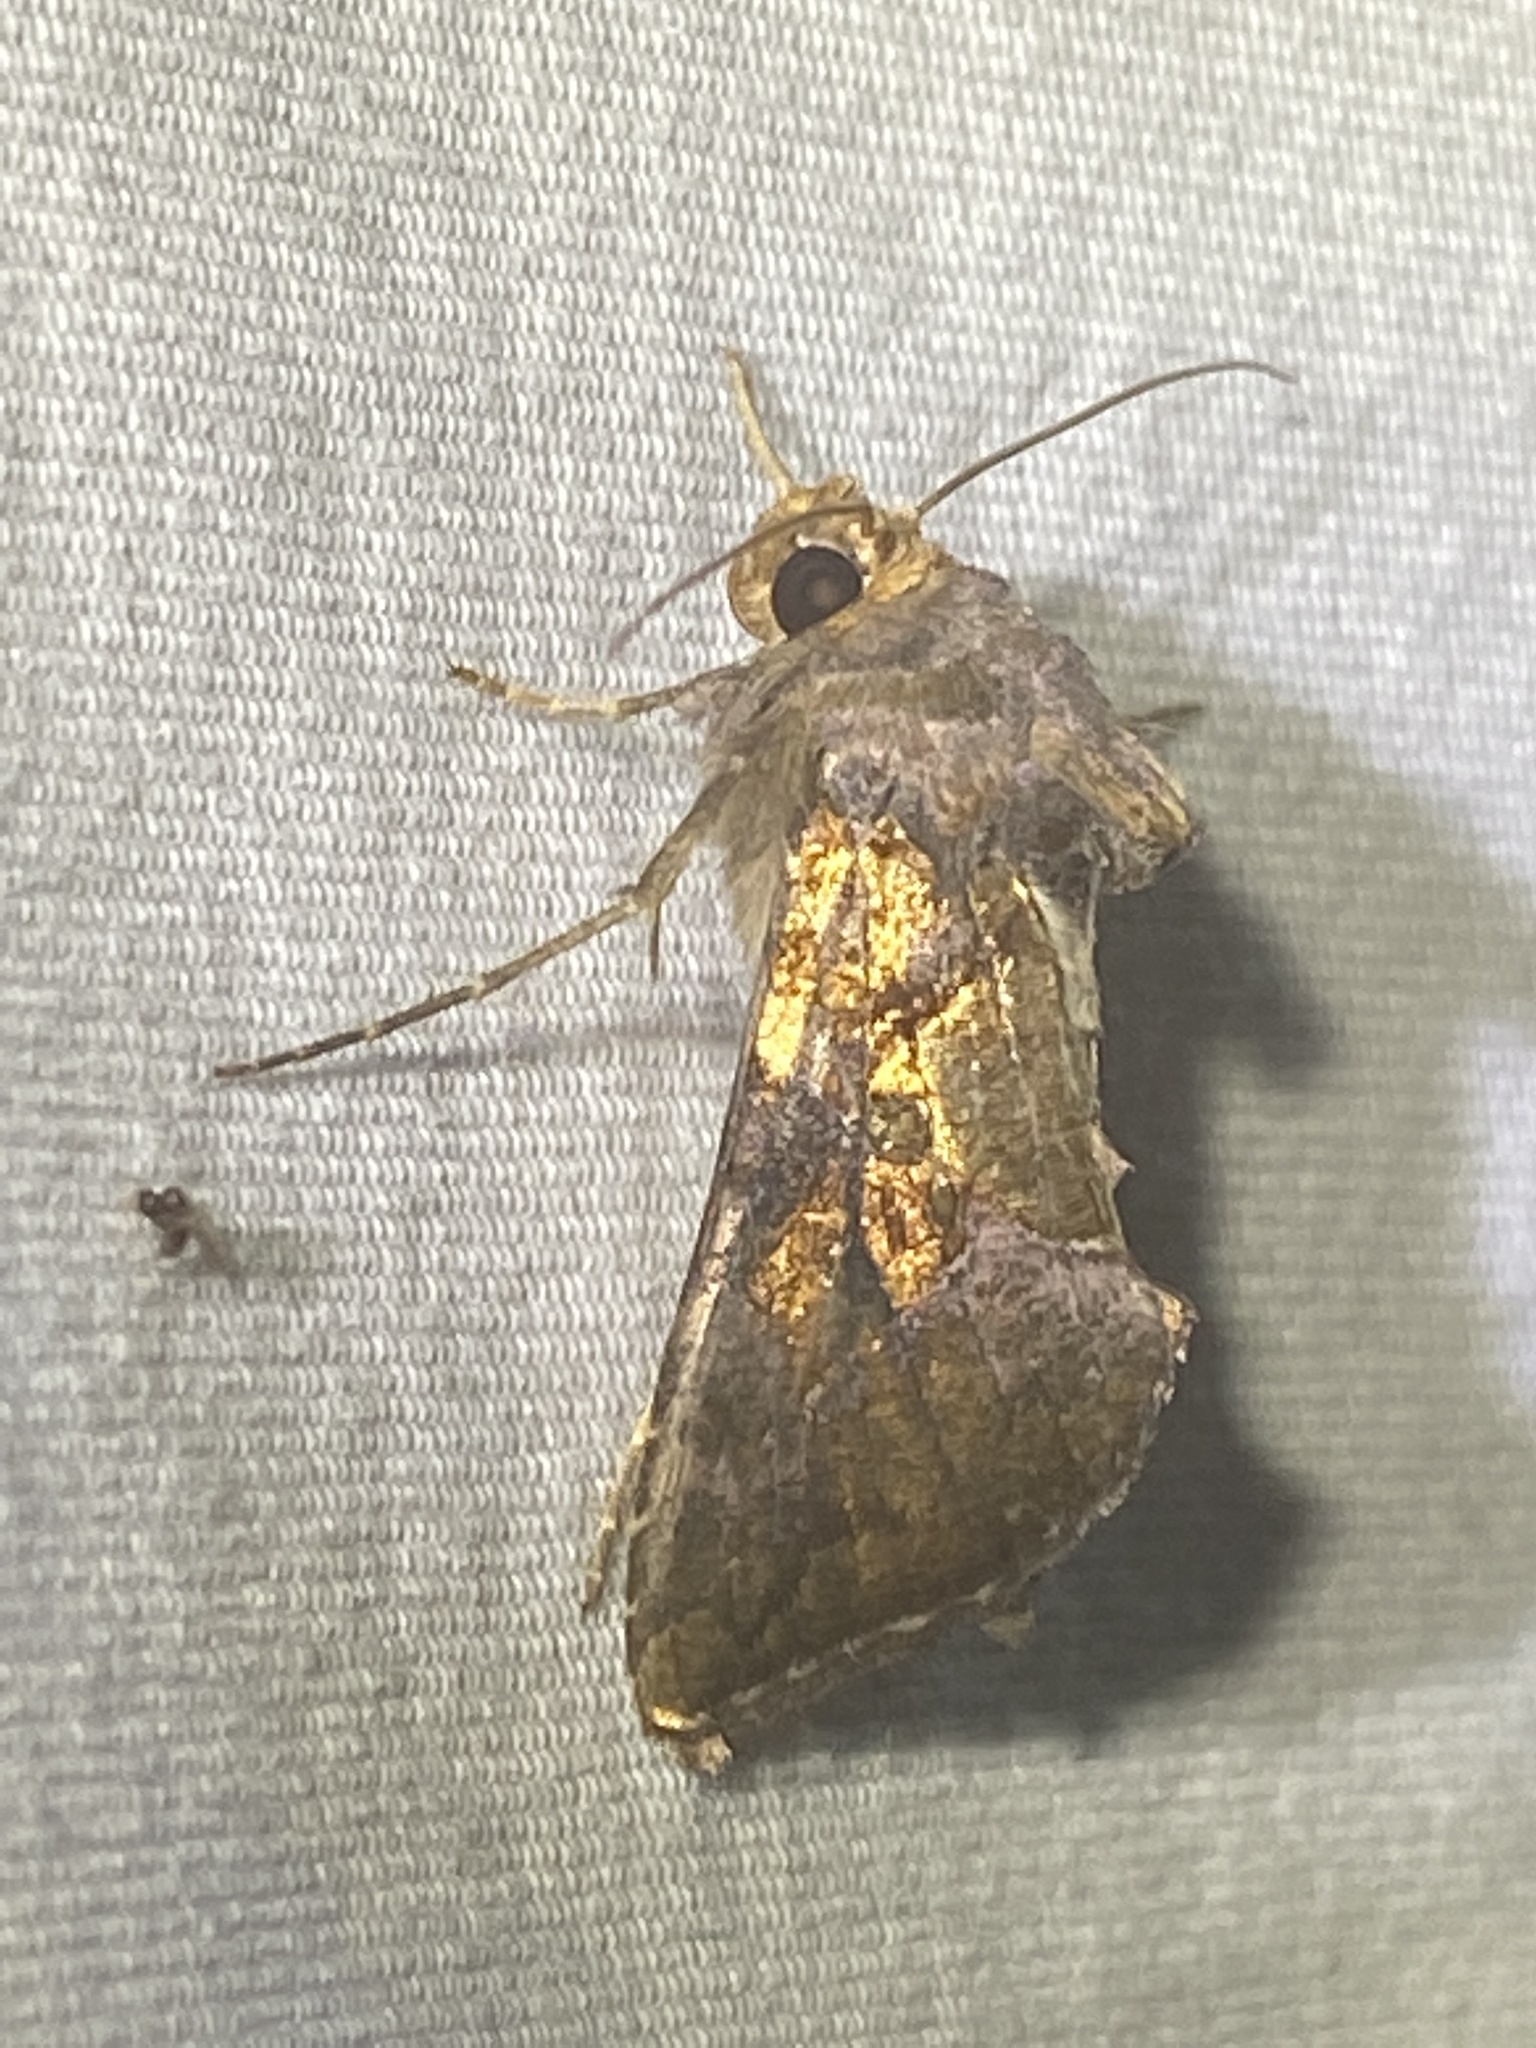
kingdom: Animalia
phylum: Arthropoda
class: Insecta
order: Lepidoptera
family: Noctuidae
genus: Argyrogramma
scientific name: Argyrogramma verruca
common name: Golden looper moth
